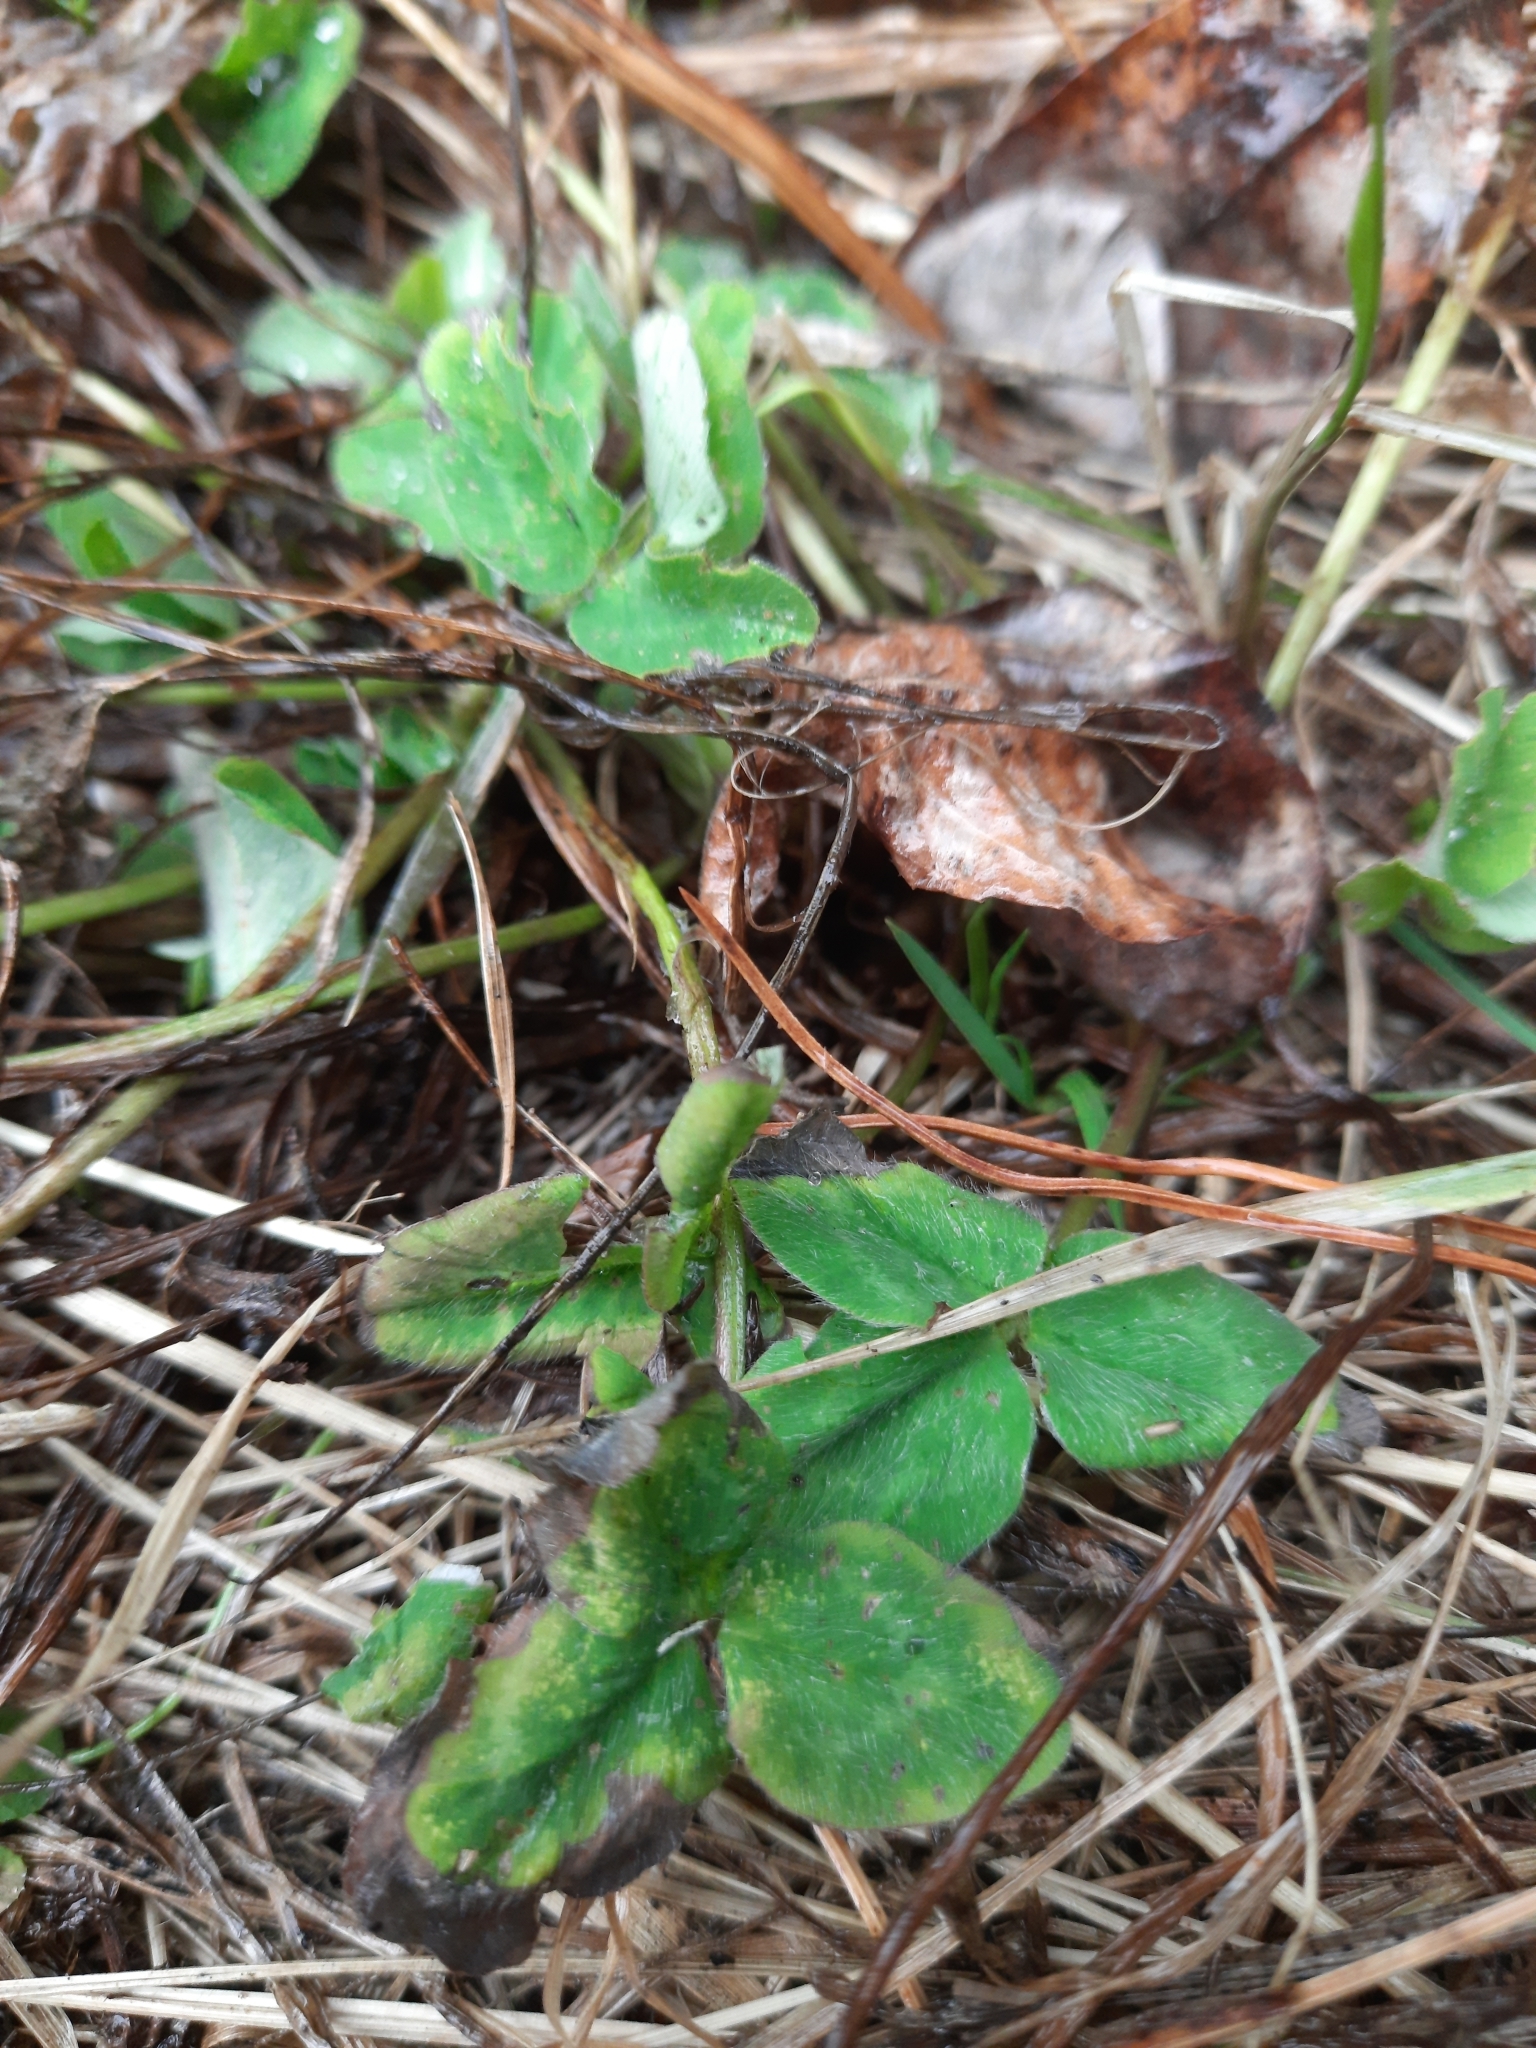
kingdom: Plantae
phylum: Tracheophyta
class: Magnoliopsida
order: Fabales
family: Fabaceae
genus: Trifolium
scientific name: Trifolium pratense
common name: Red clover
